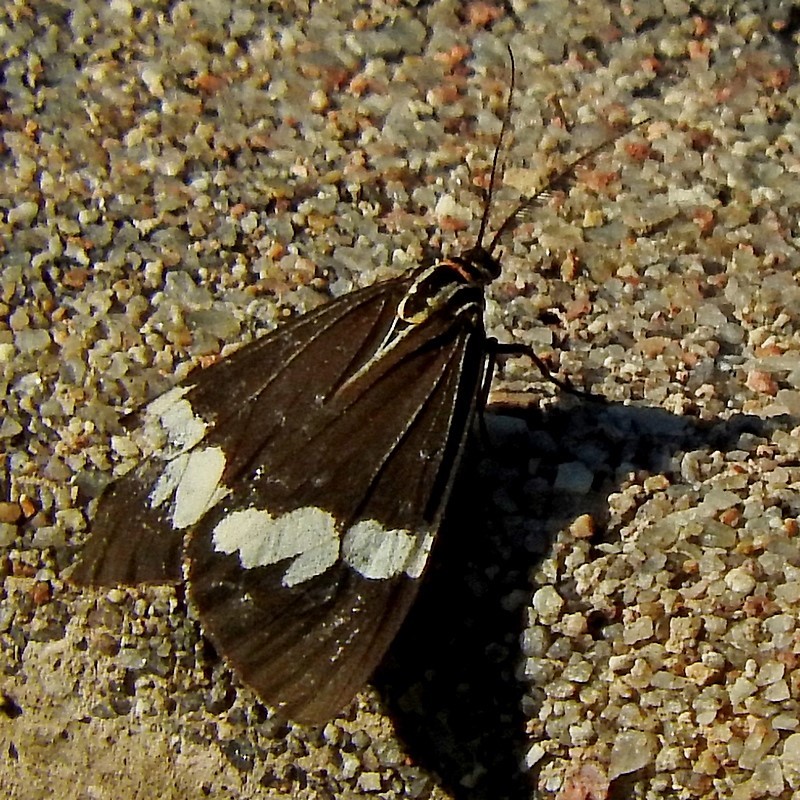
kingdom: Animalia
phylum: Arthropoda
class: Insecta
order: Lepidoptera
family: Erebidae
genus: Nyctemera
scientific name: Nyctemera amicus
